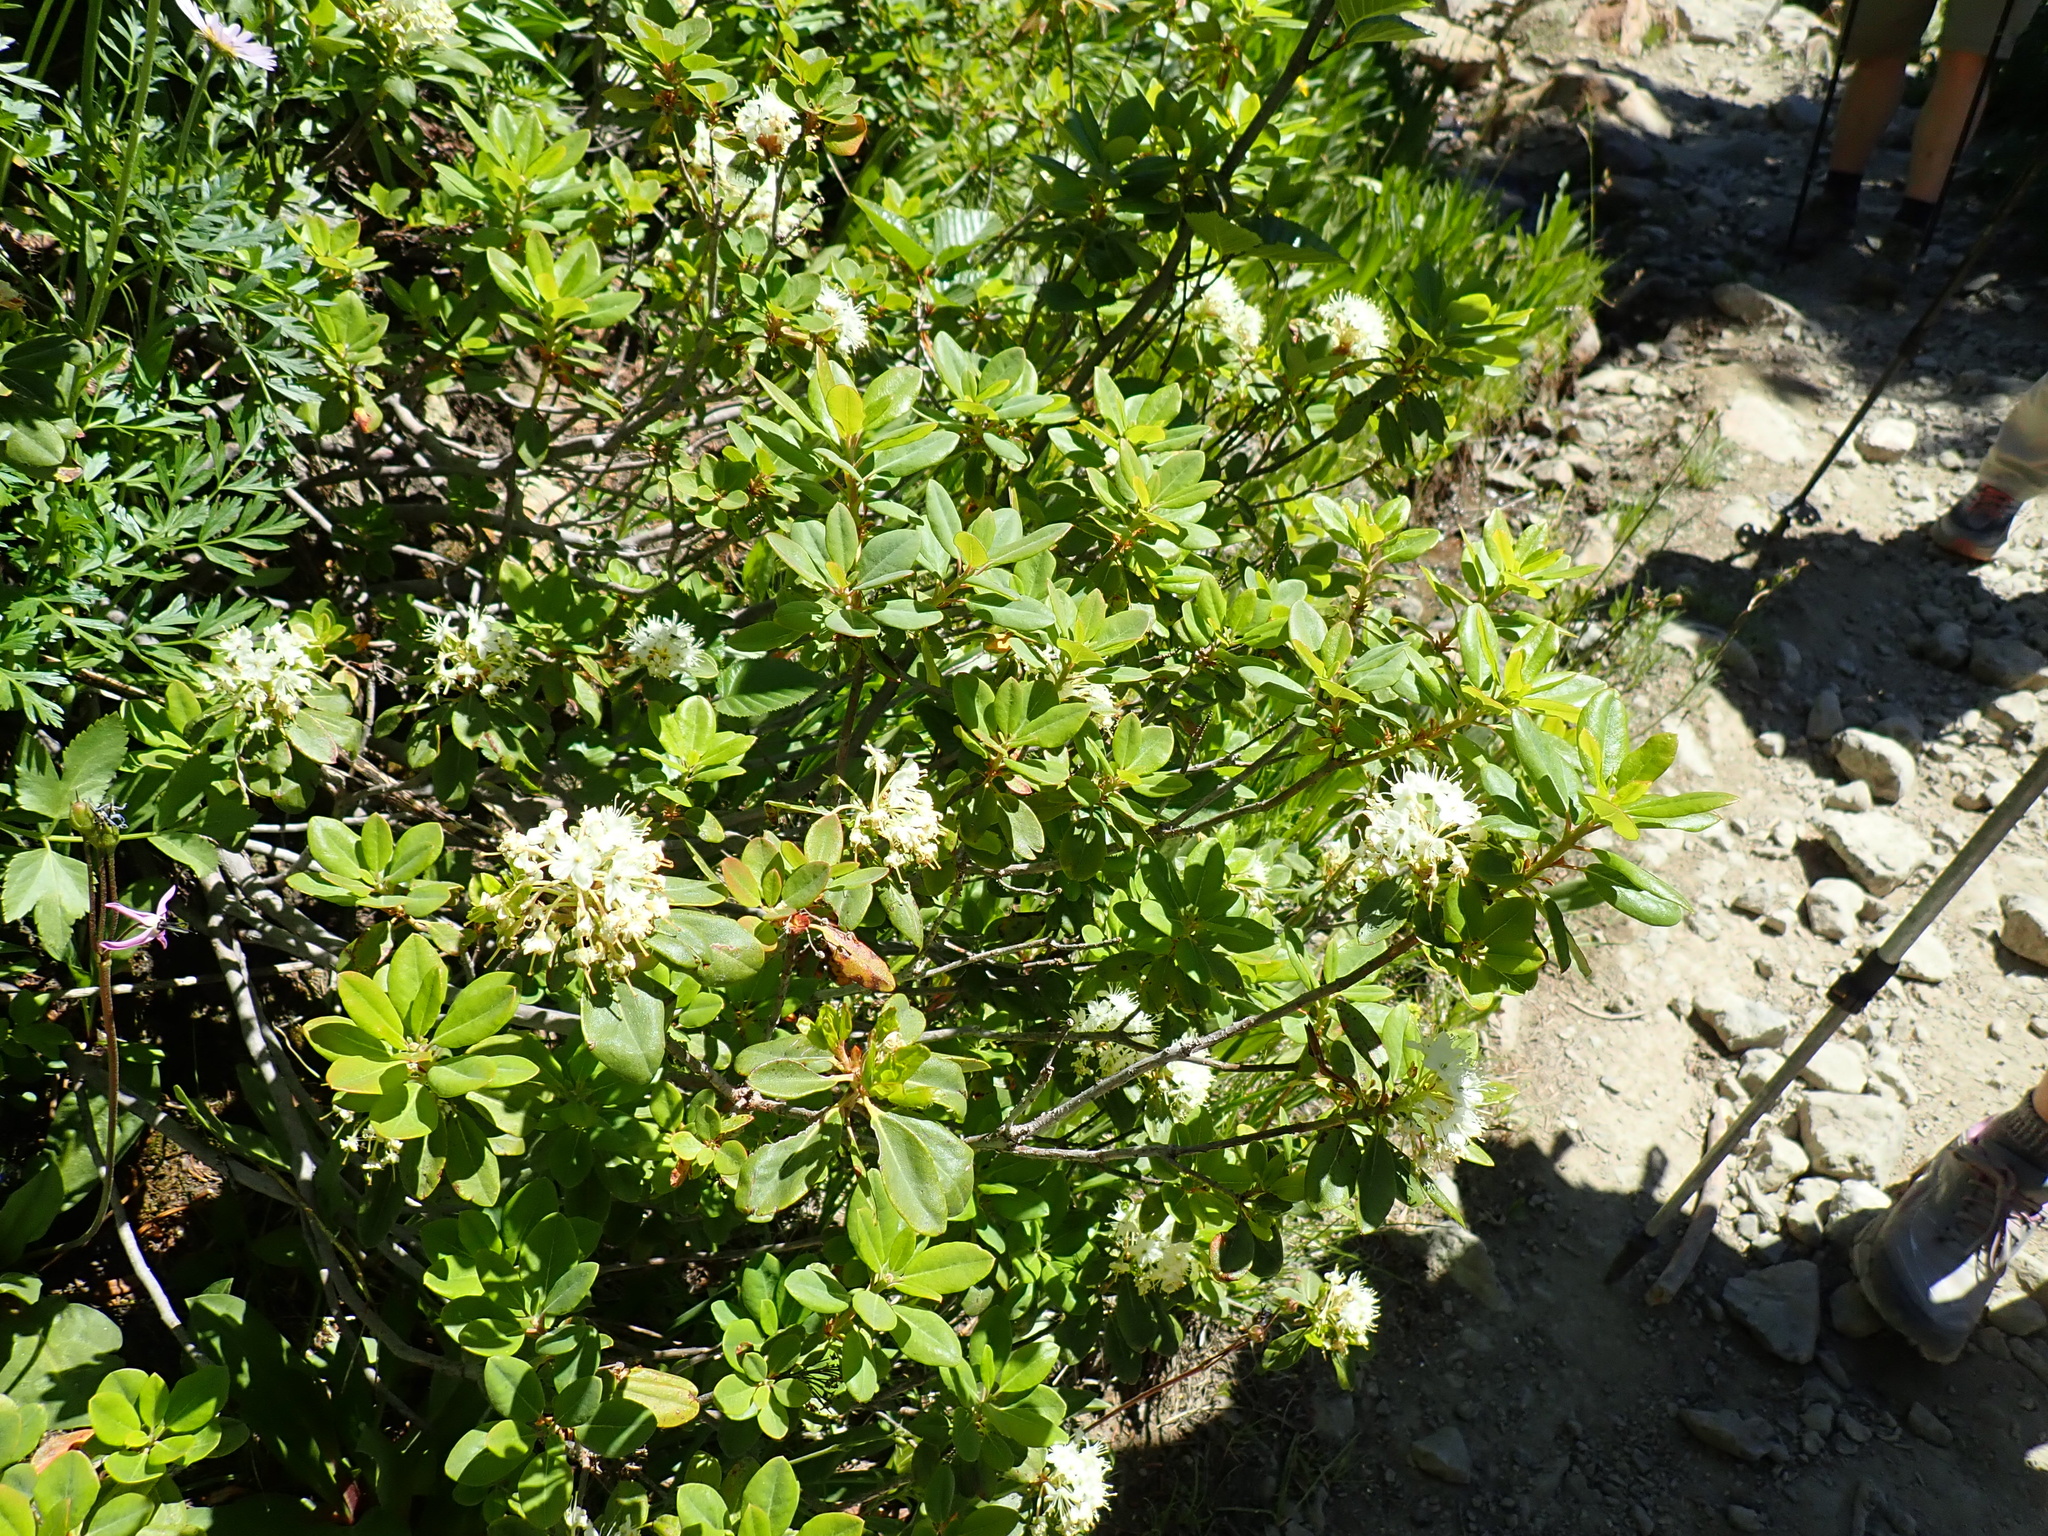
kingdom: Plantae
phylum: Tracheophyta
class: Magnoliopsida
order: Ericales
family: Ericaceae
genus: Rhododendron
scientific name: Rhododendron columbianum
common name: Western labrador tea
